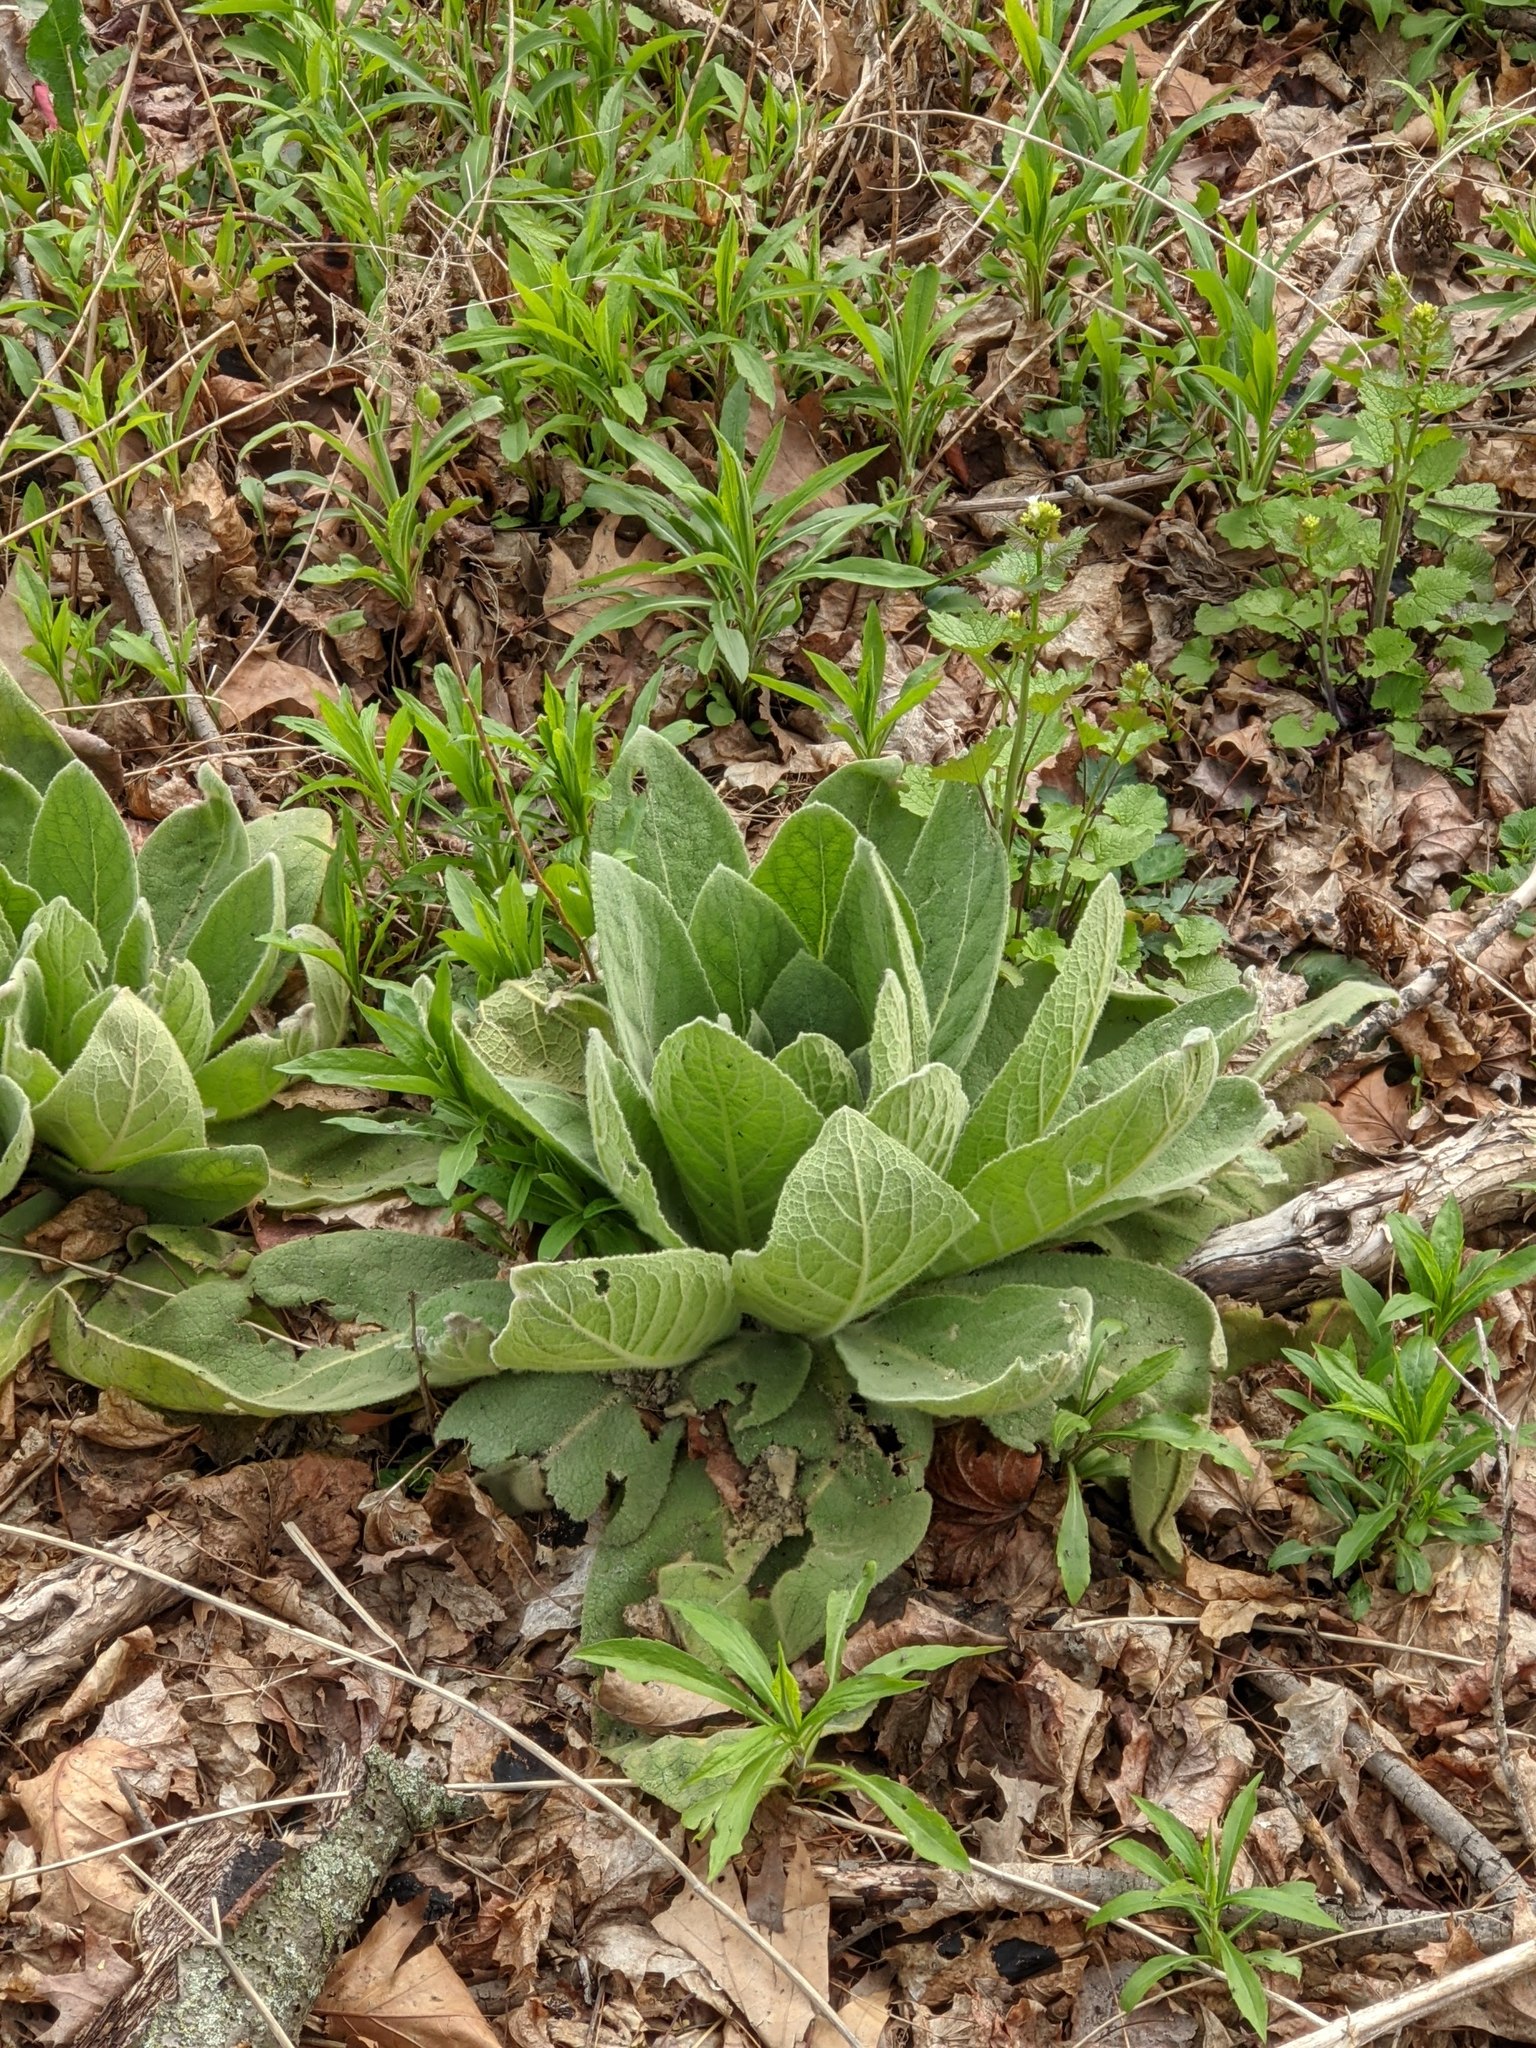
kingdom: Plantae
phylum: Tracheophyta
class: Magnoliopsida
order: Lamiales
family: Scrophulariaceae
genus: Verbascum
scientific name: Verbascum thapsus
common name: Common mullein
